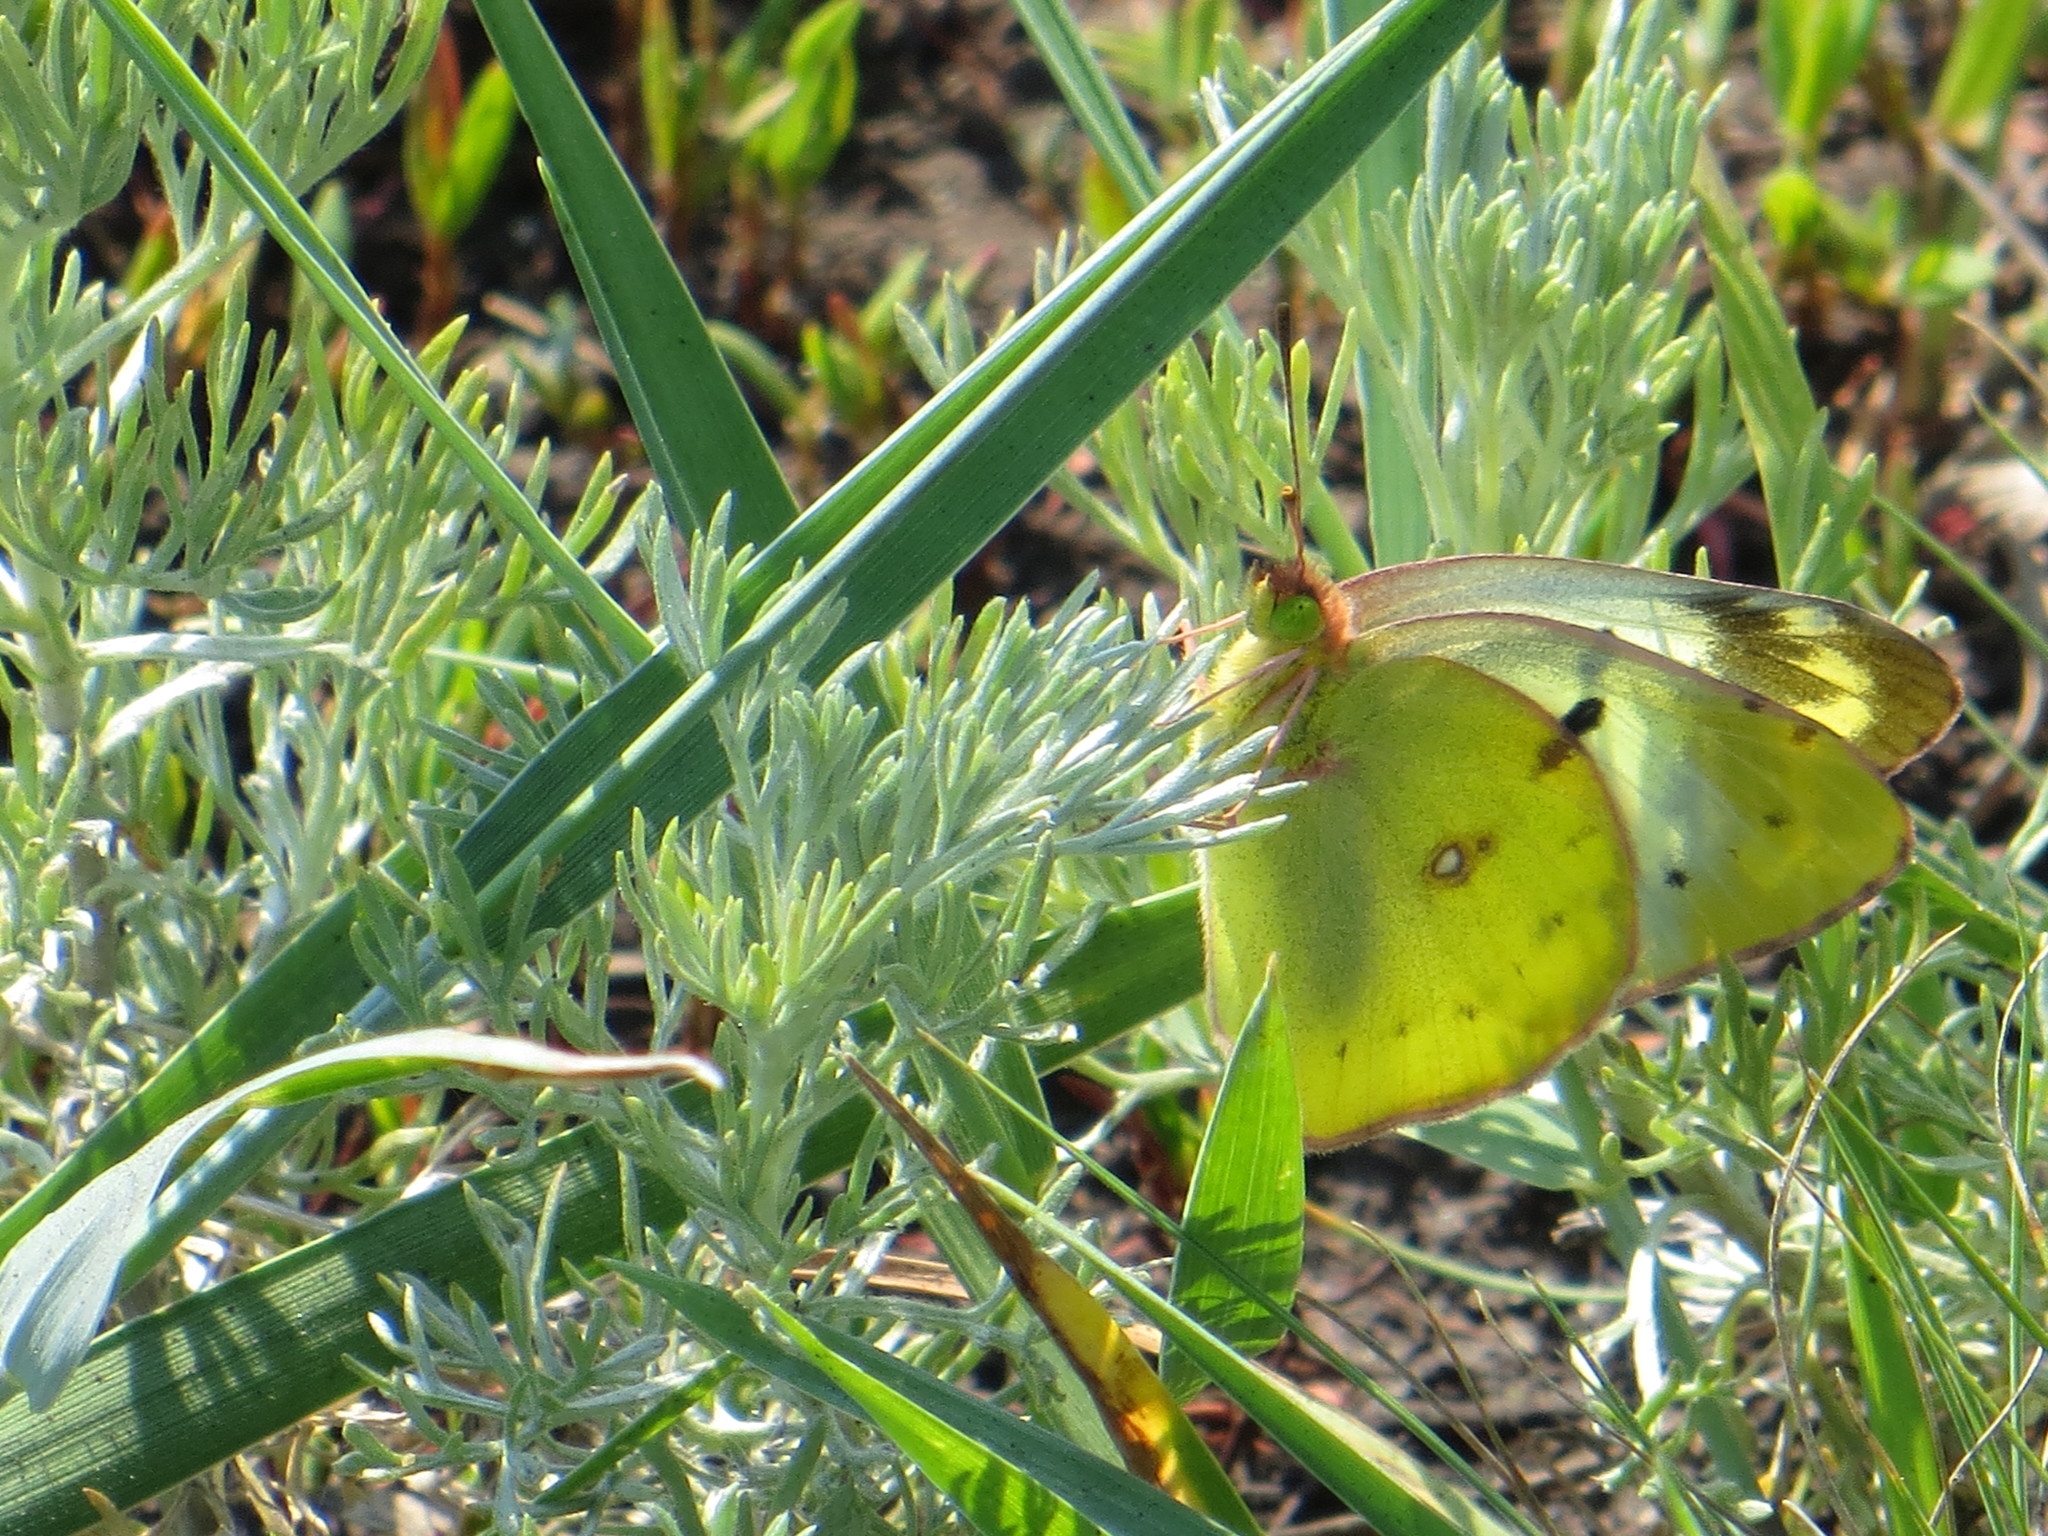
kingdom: Animalia
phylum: Arthropoda
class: Insecta
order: Lepidoptera
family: Pieridae
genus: Colias
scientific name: Colias hyale
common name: Pale clouded yellow
